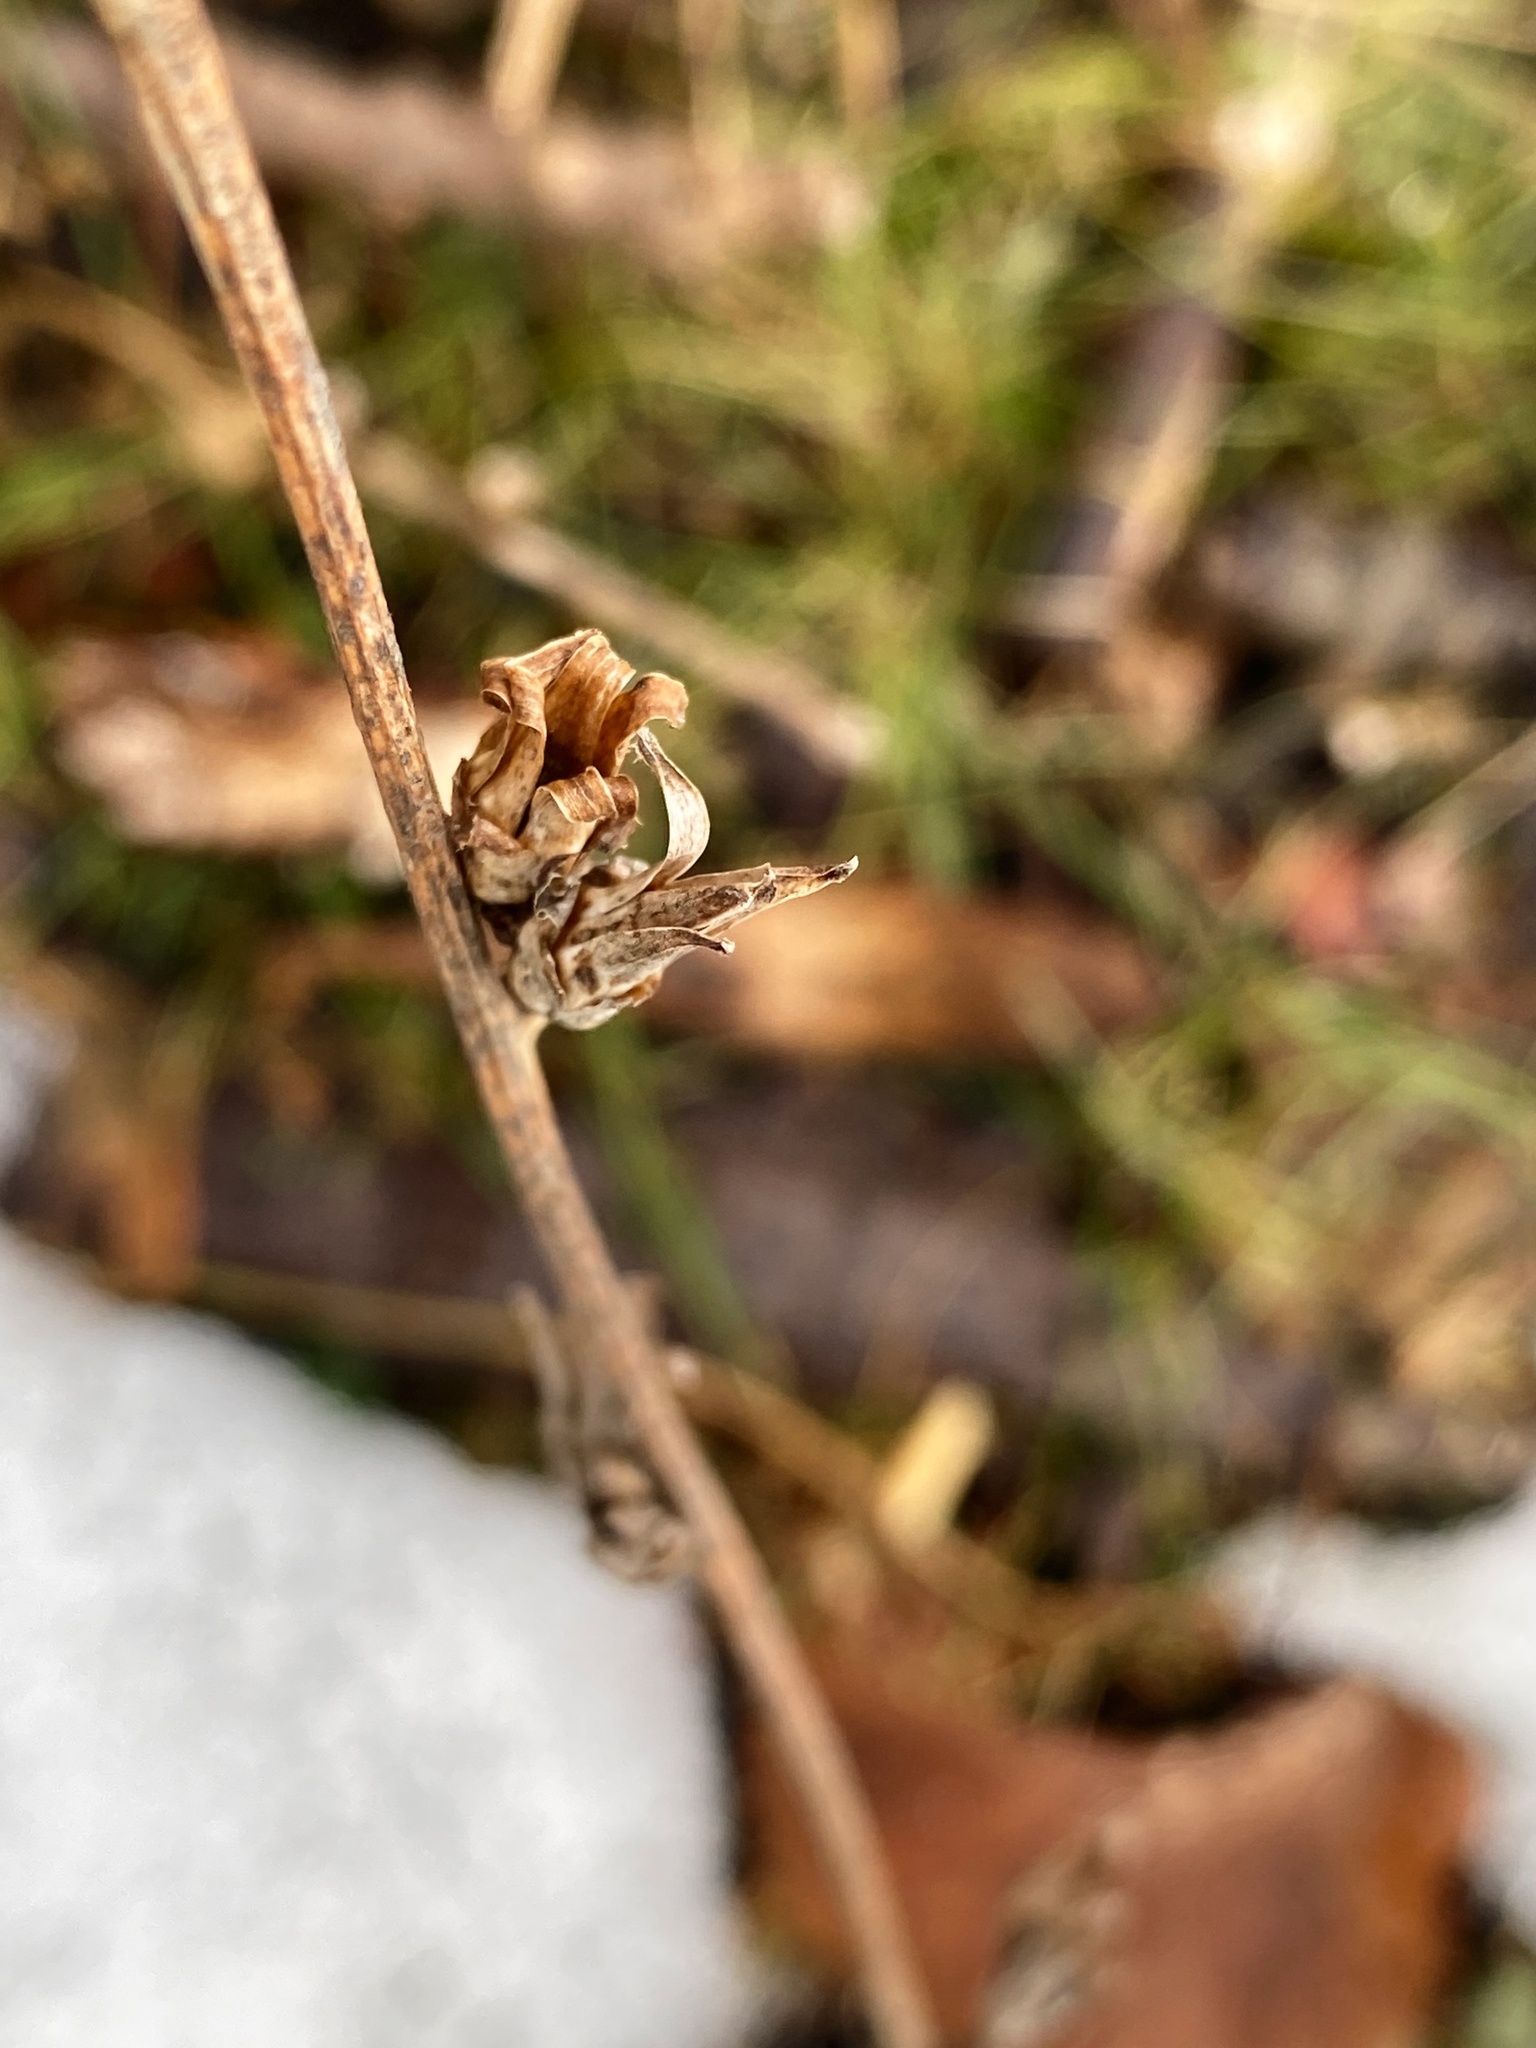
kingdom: Plantae
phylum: Tracheophyta
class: Magnoliopsida
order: Asterales
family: Asteraceae
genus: Cichorium
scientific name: Cichorium intybus
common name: Chicory
